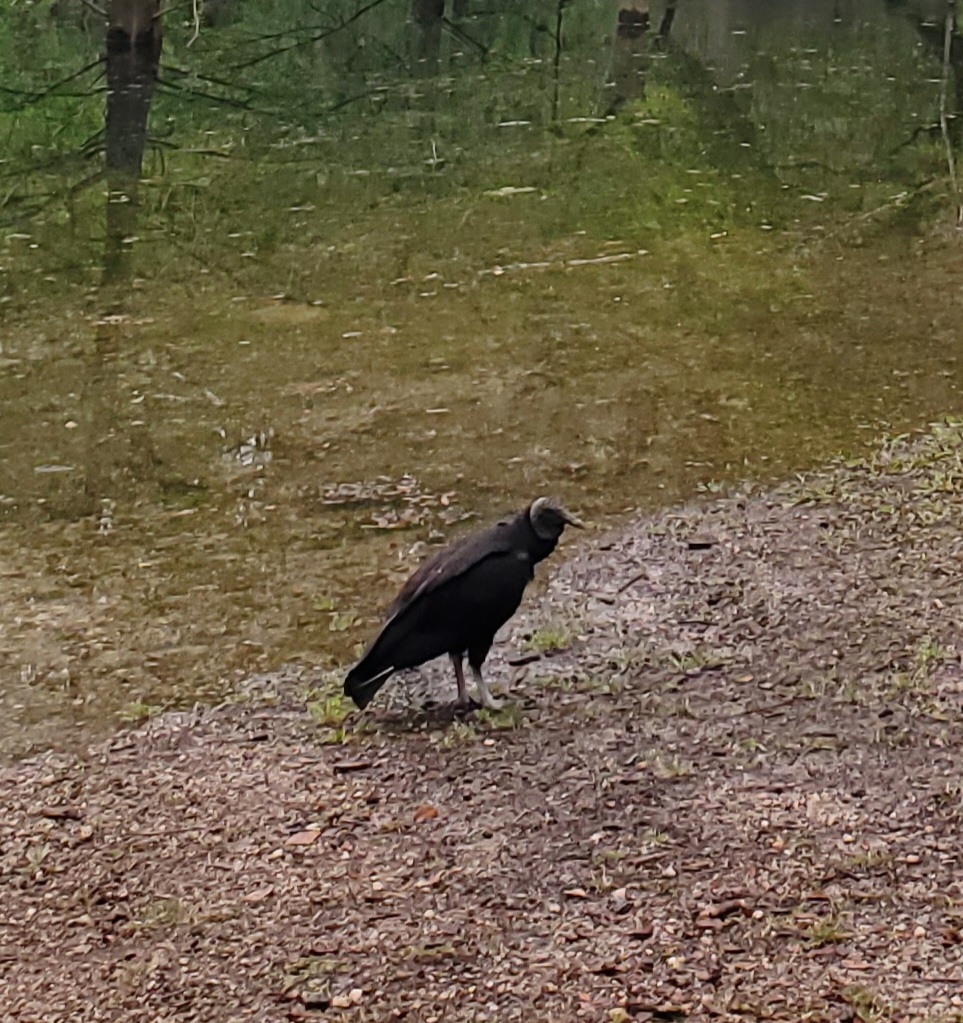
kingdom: Animalia
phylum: Chordata
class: Aves
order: Accipitriformes
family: Cathartidae
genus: Coragyps
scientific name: Coragyps atratus
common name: Black vulture
